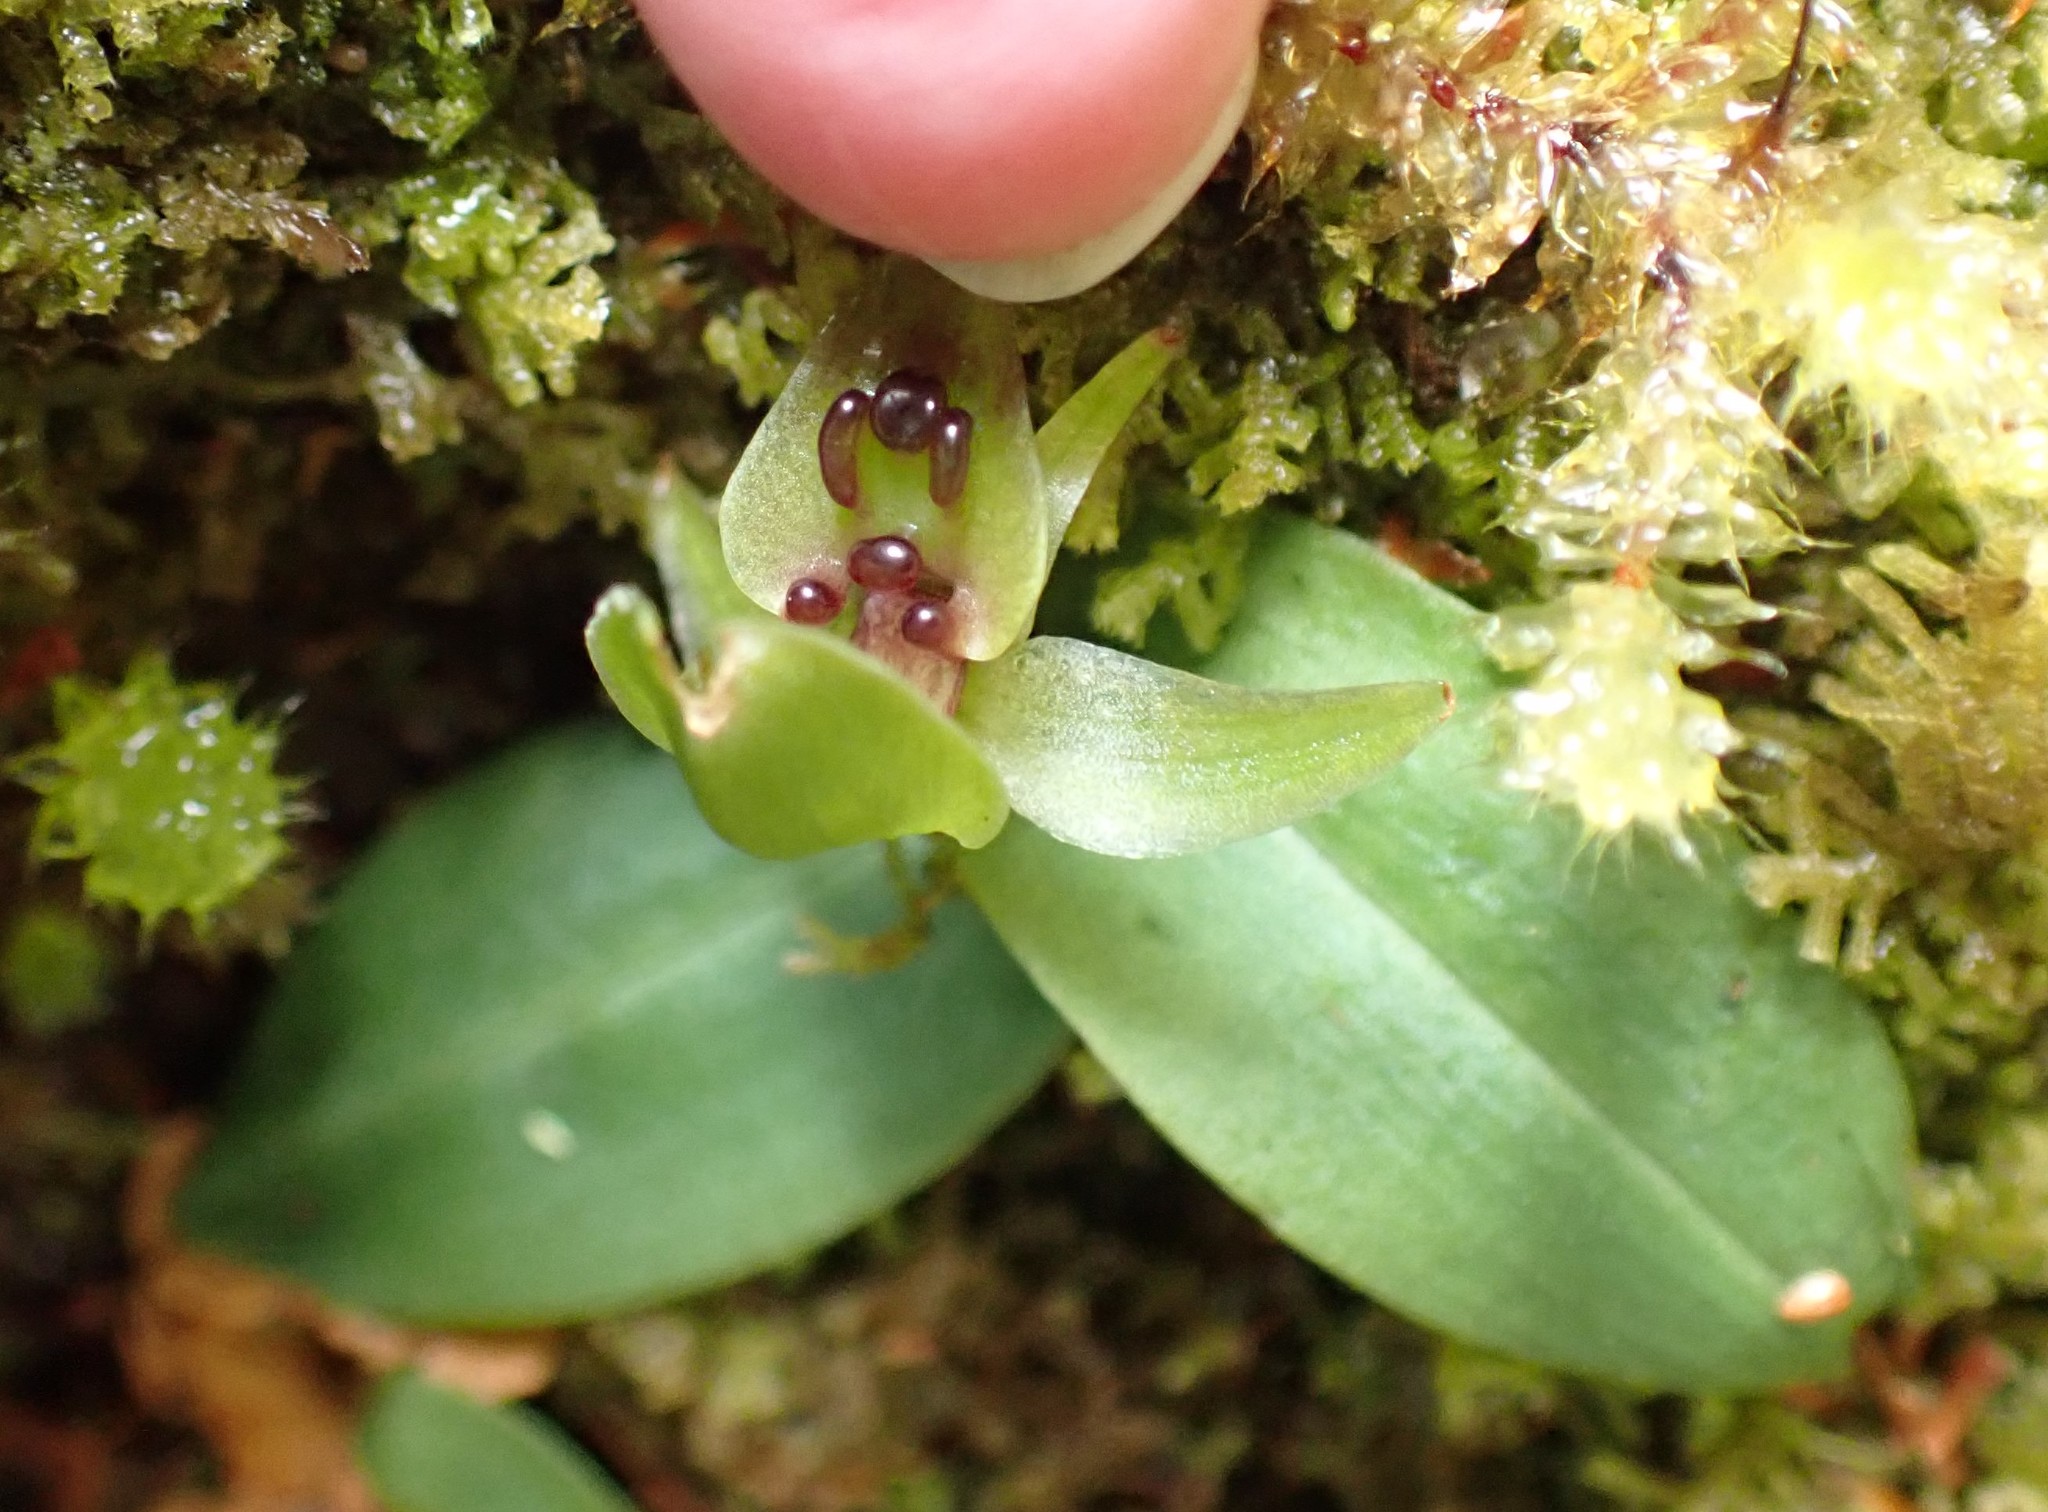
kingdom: Plantae
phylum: Tracheophyta
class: Liliopsida
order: Asparagales
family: Orchidaceae
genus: Chiloglottis
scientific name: Chiloglottis cornuta
